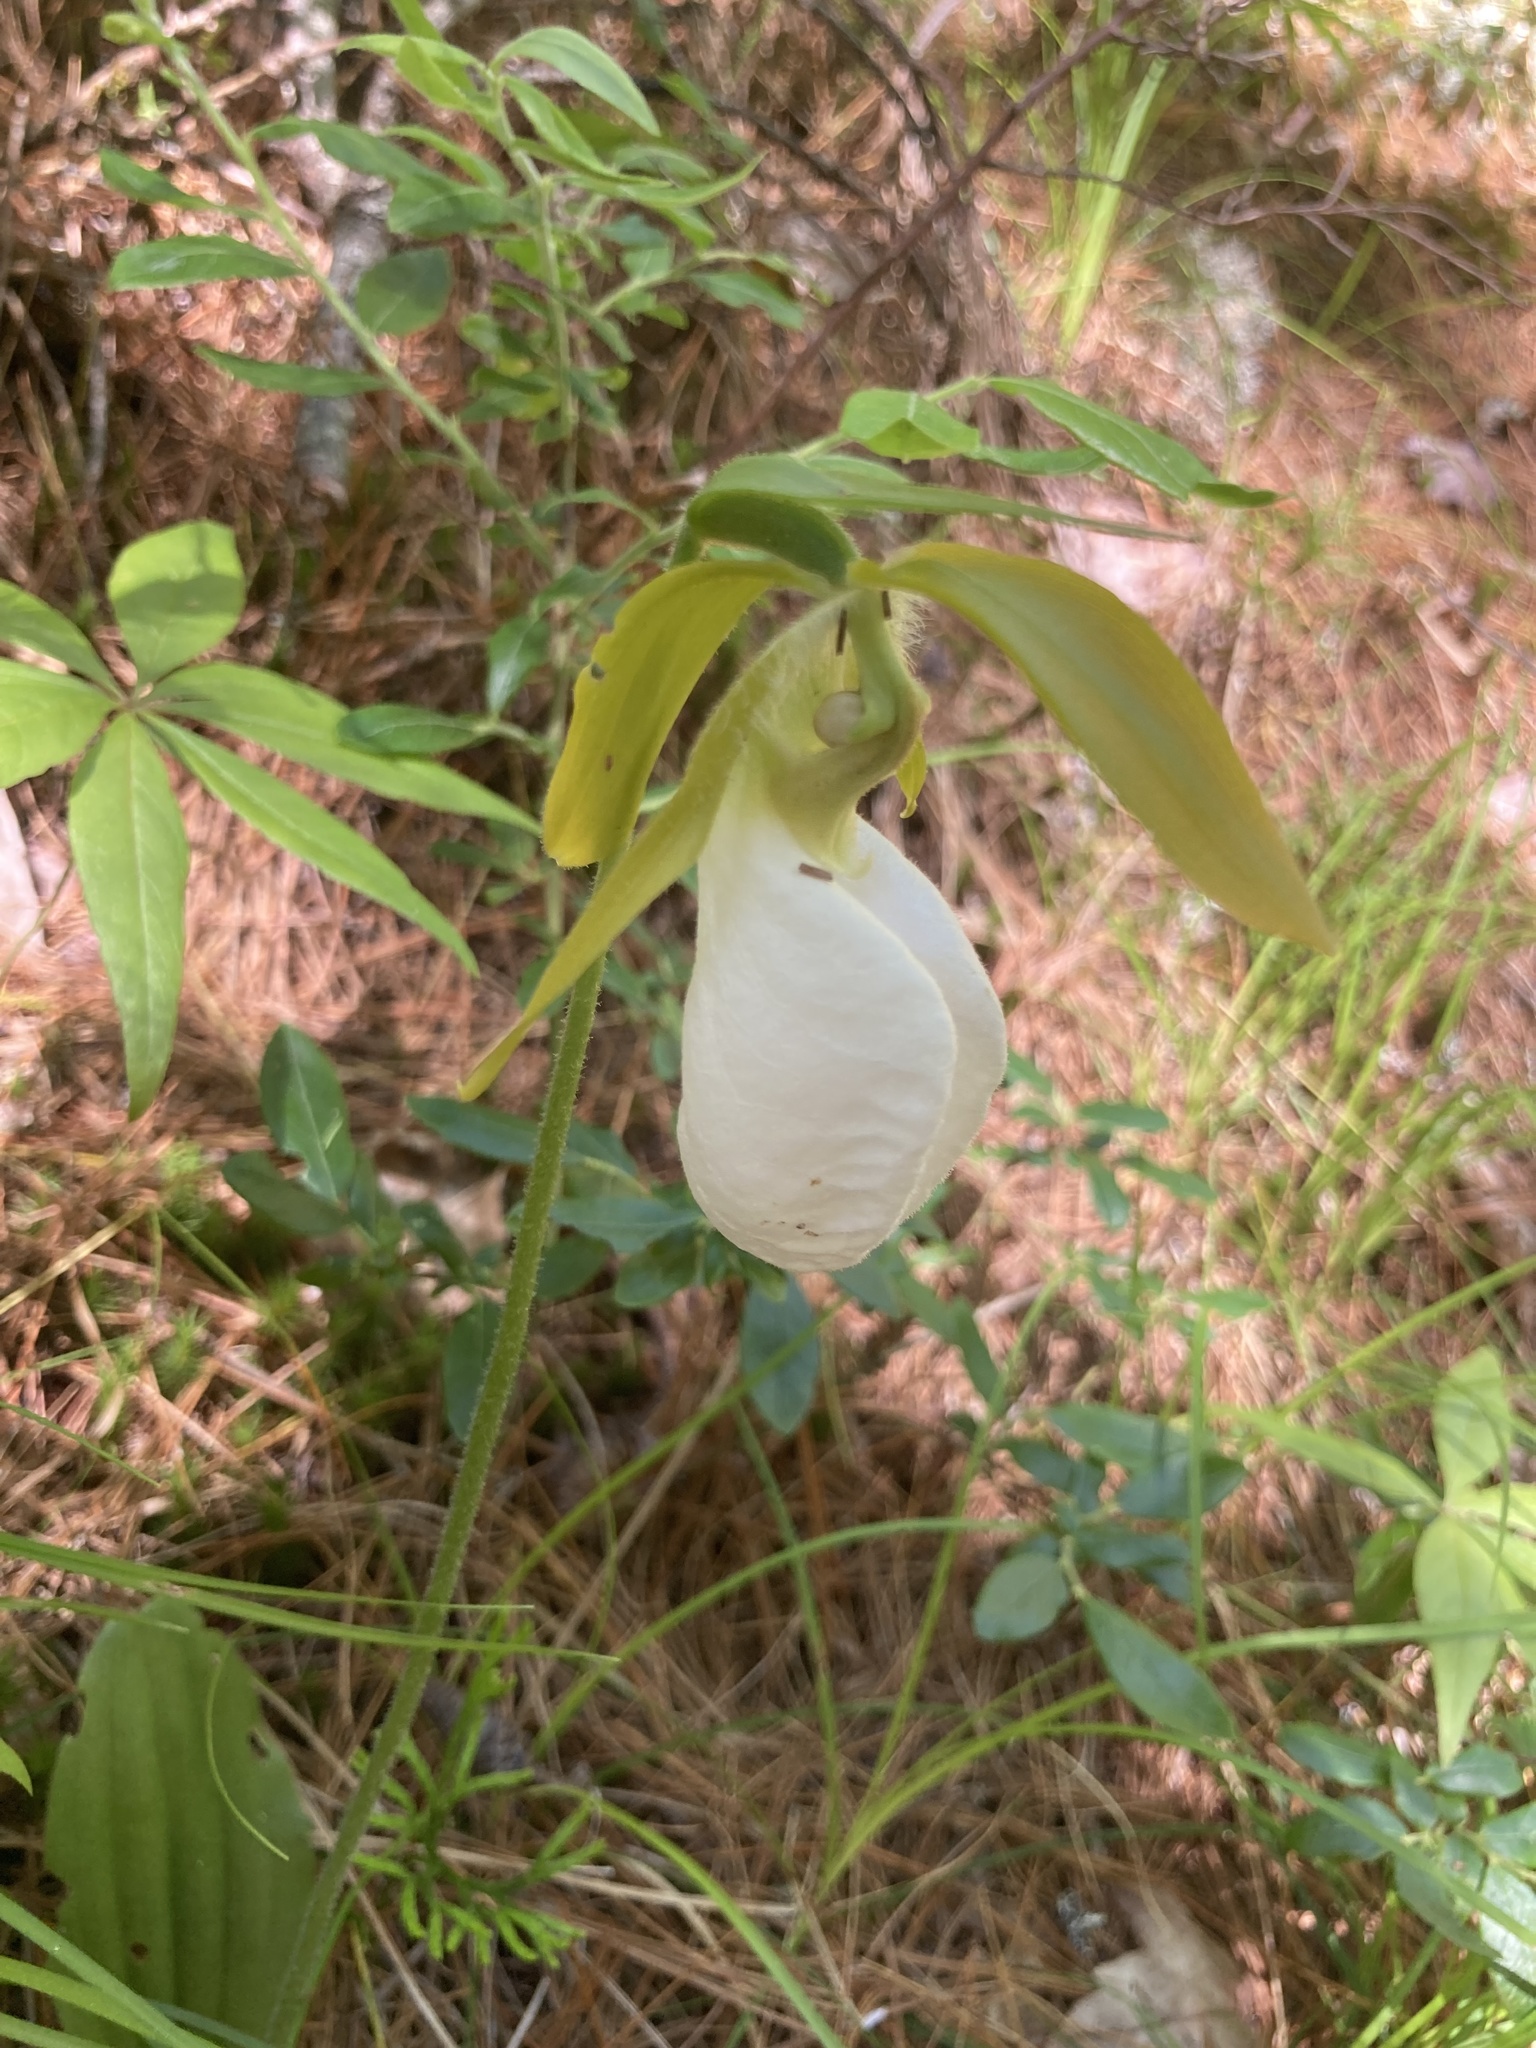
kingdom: Plantae
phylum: Tracheophyta
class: Liliopsida
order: Asparagales
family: Orchidaceae
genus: Cypripedium
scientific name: Cypripedium acaule
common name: Pink lady's-slipper
